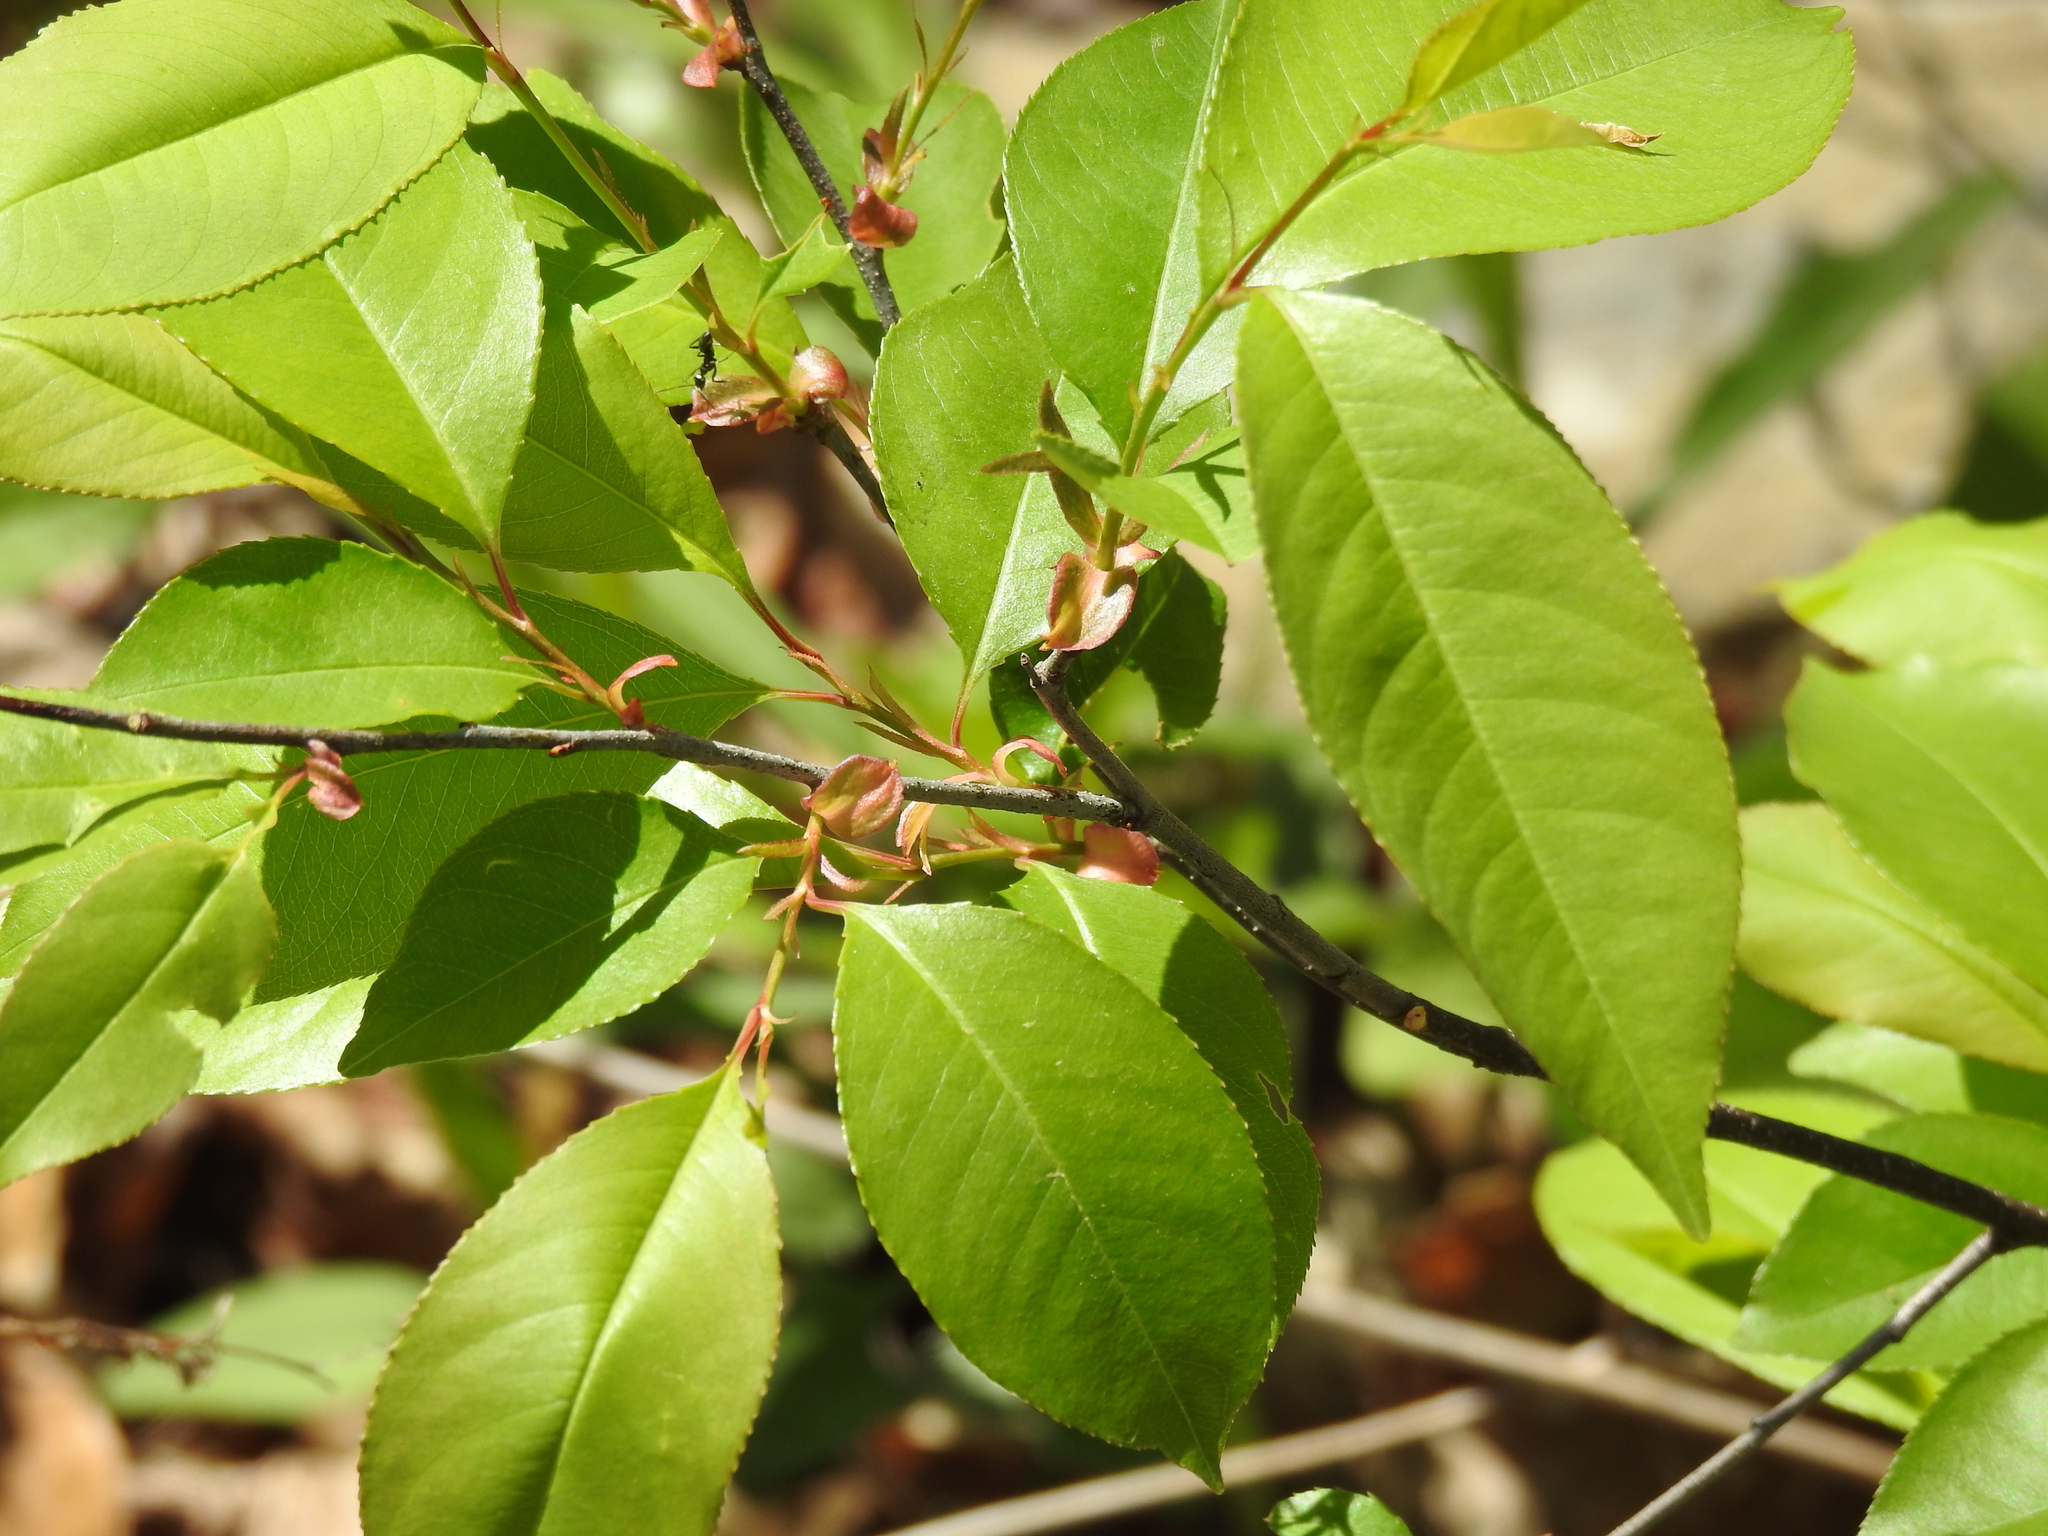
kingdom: Plantae
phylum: Tracheophyta
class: Magnoliopsida
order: Rosales
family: Rosaceae
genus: Prunus
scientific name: Prunus serotina
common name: Black cherry
